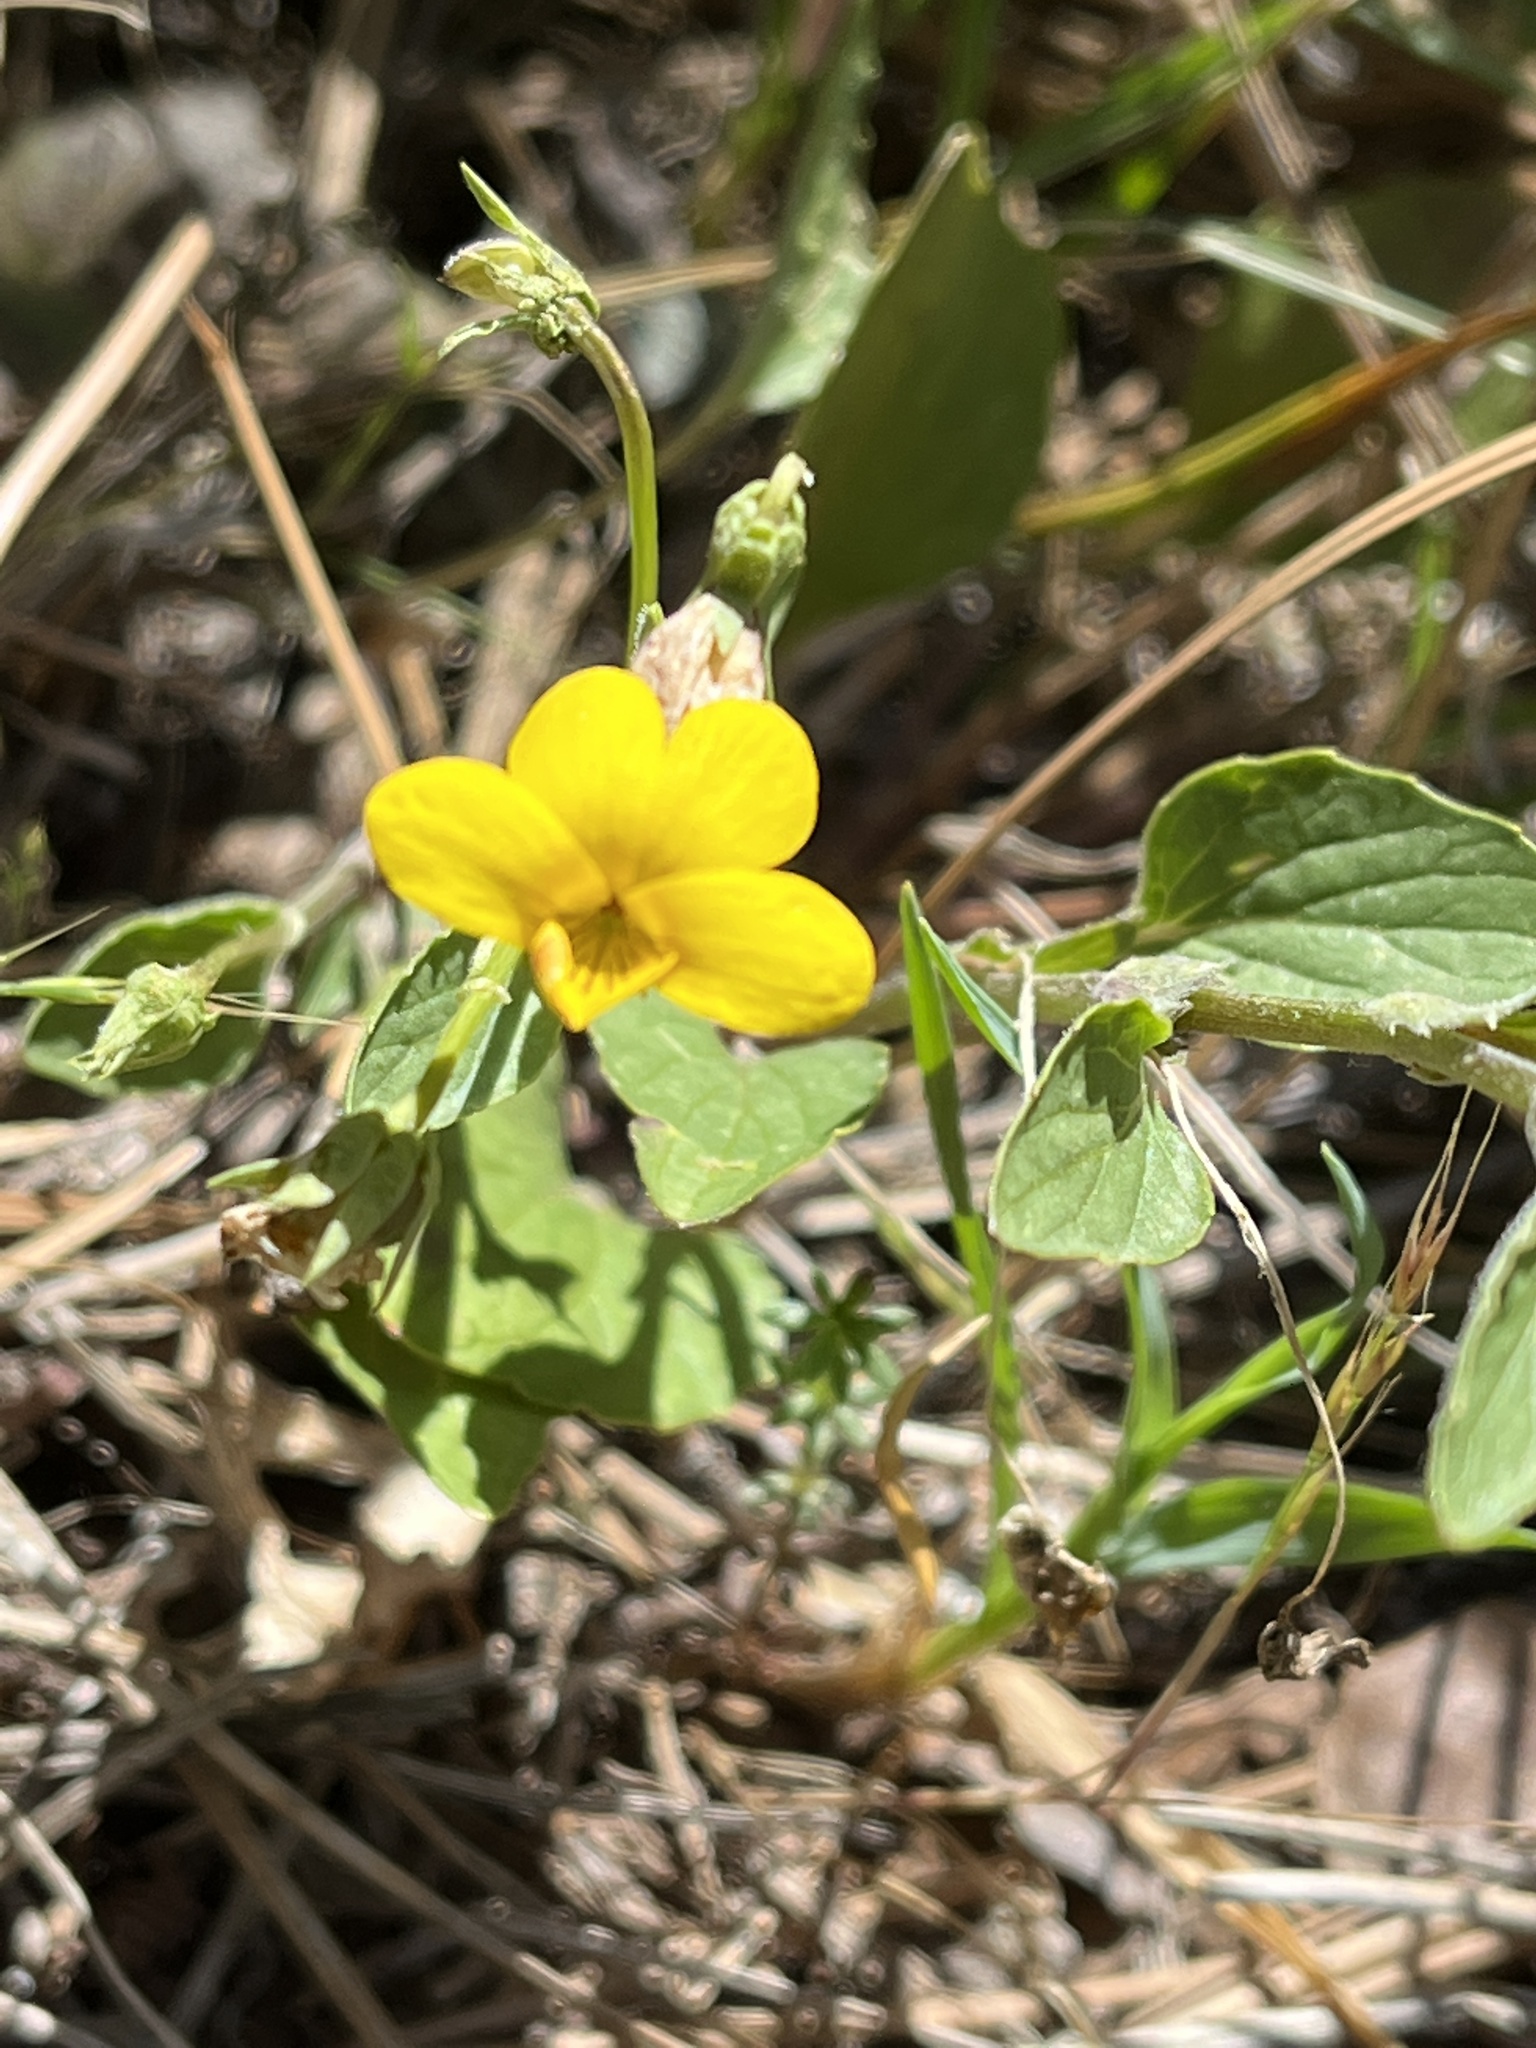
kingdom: Plantae
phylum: Tracheophyta
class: Magnoliopsida
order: Malpighiales
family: Violaceae
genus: Viola
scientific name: Viola purpurea
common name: Pine violet
